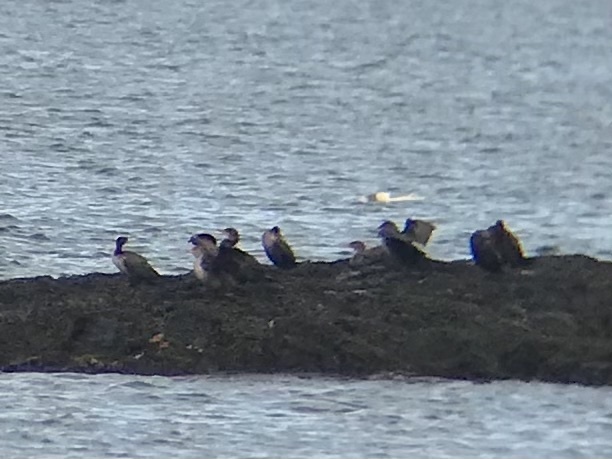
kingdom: Animalia
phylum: Chordata
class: Aves
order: Suliformes
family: Phalacrocoracidae
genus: Phalacrocorax
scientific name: Phalacrocorax auritus
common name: Double-crested cormorant
